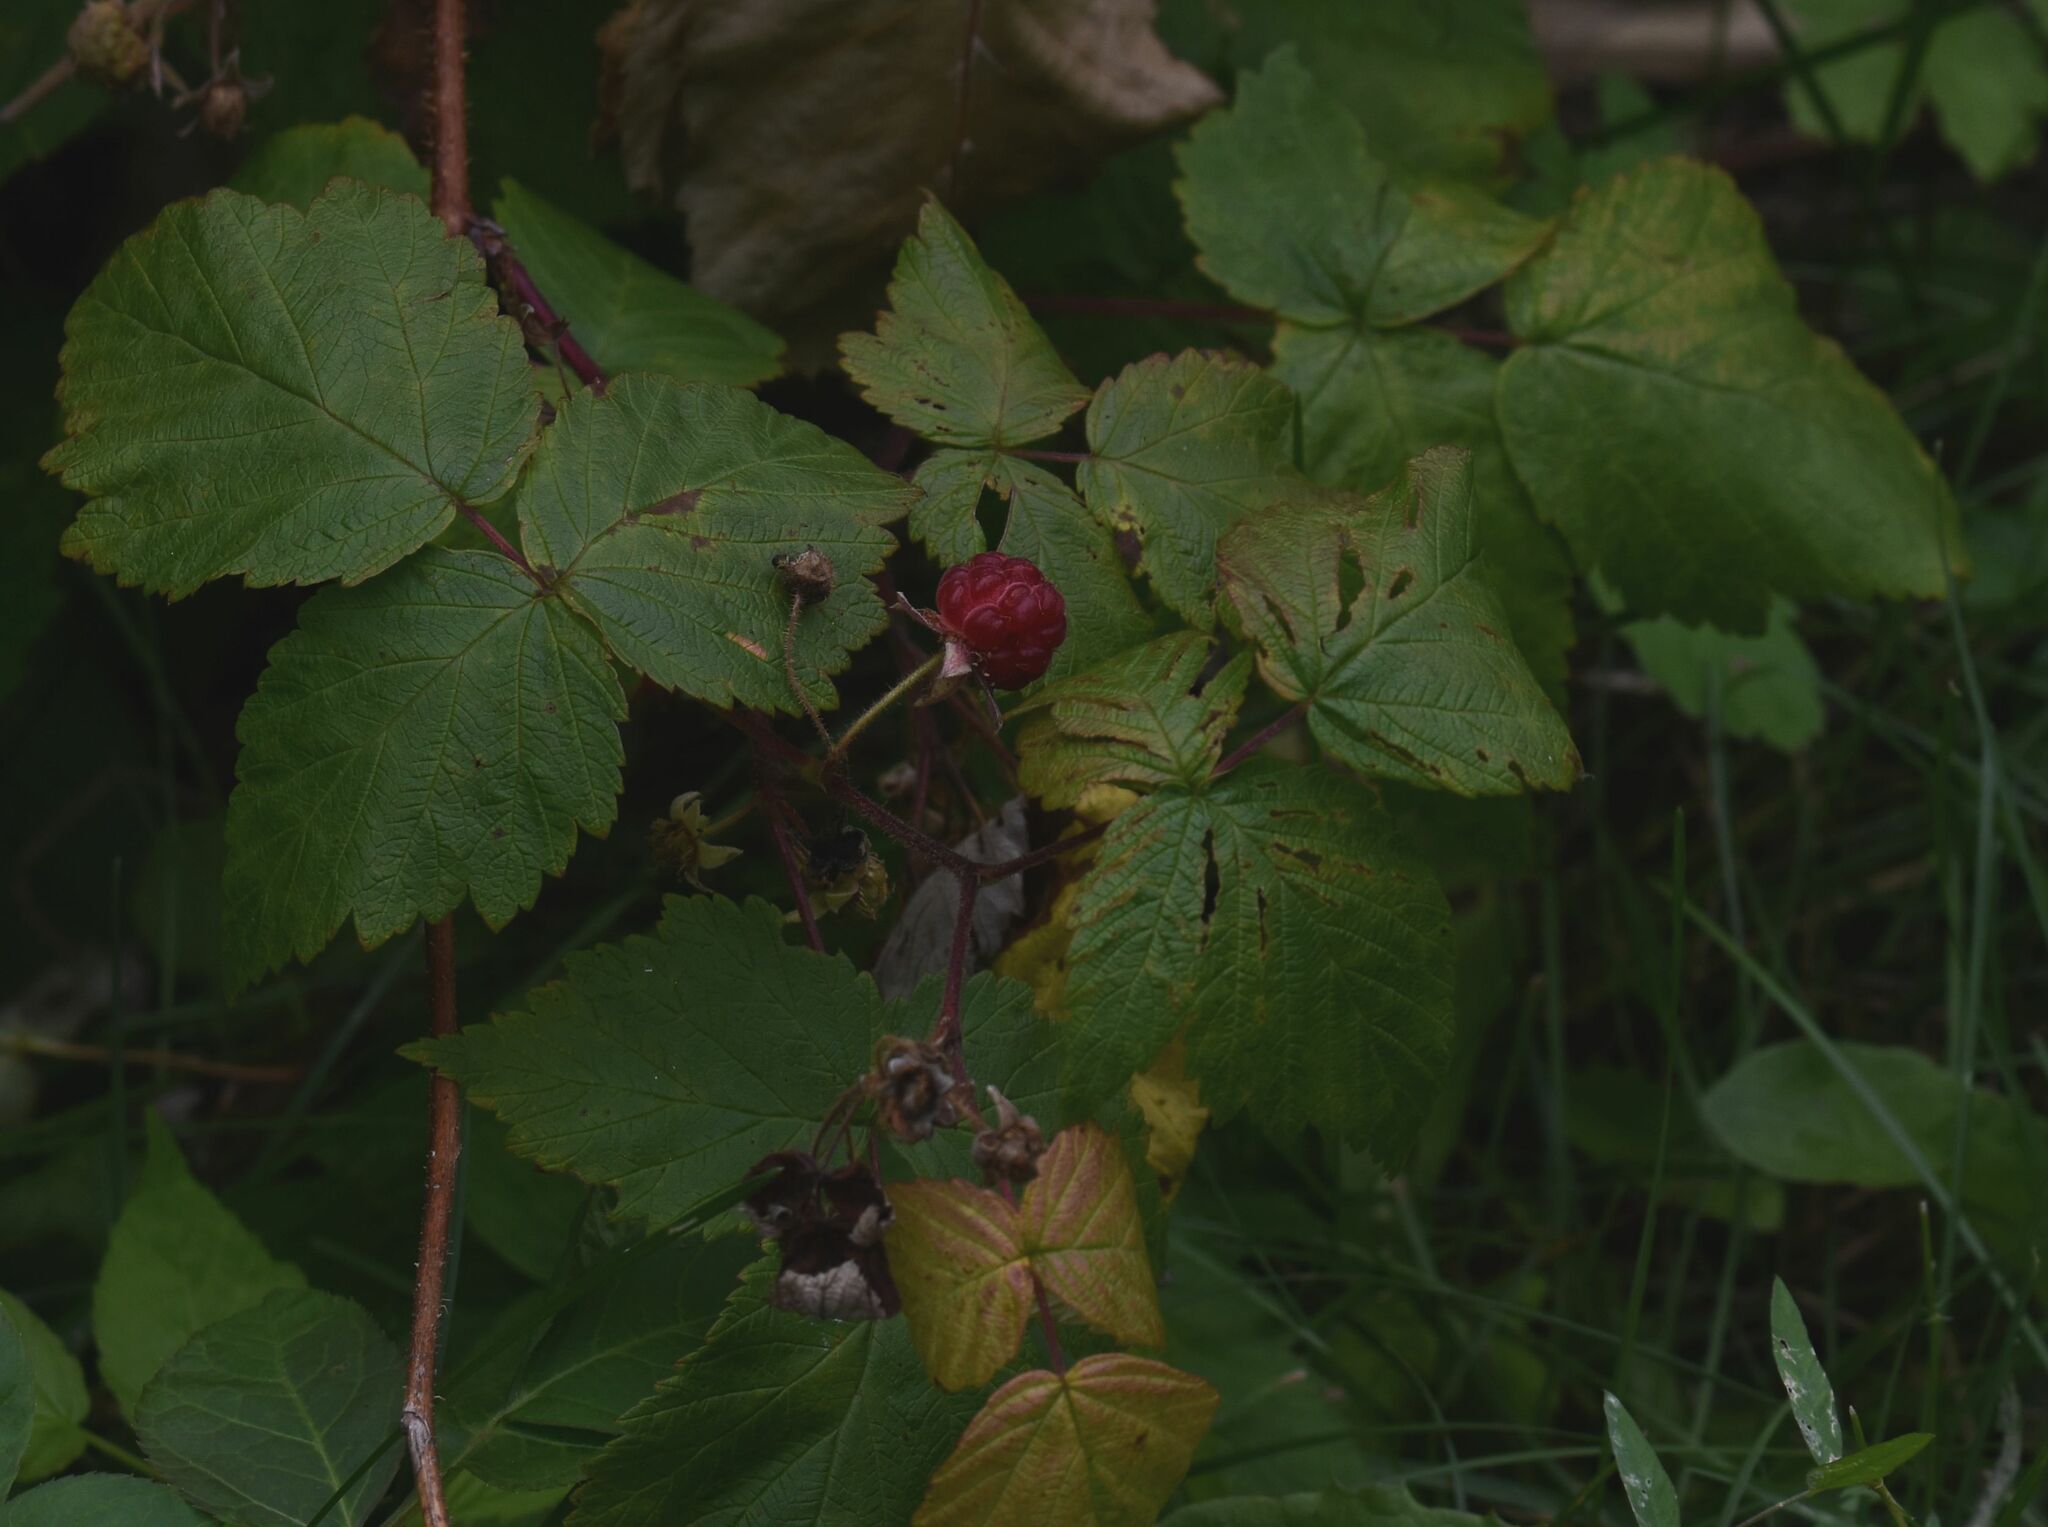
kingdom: Plantae
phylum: Tracheophyta
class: Magnoliopsida
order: Rosales
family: Rosaceae
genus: Rubus
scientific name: Rubus idaeus
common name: Raspberry
